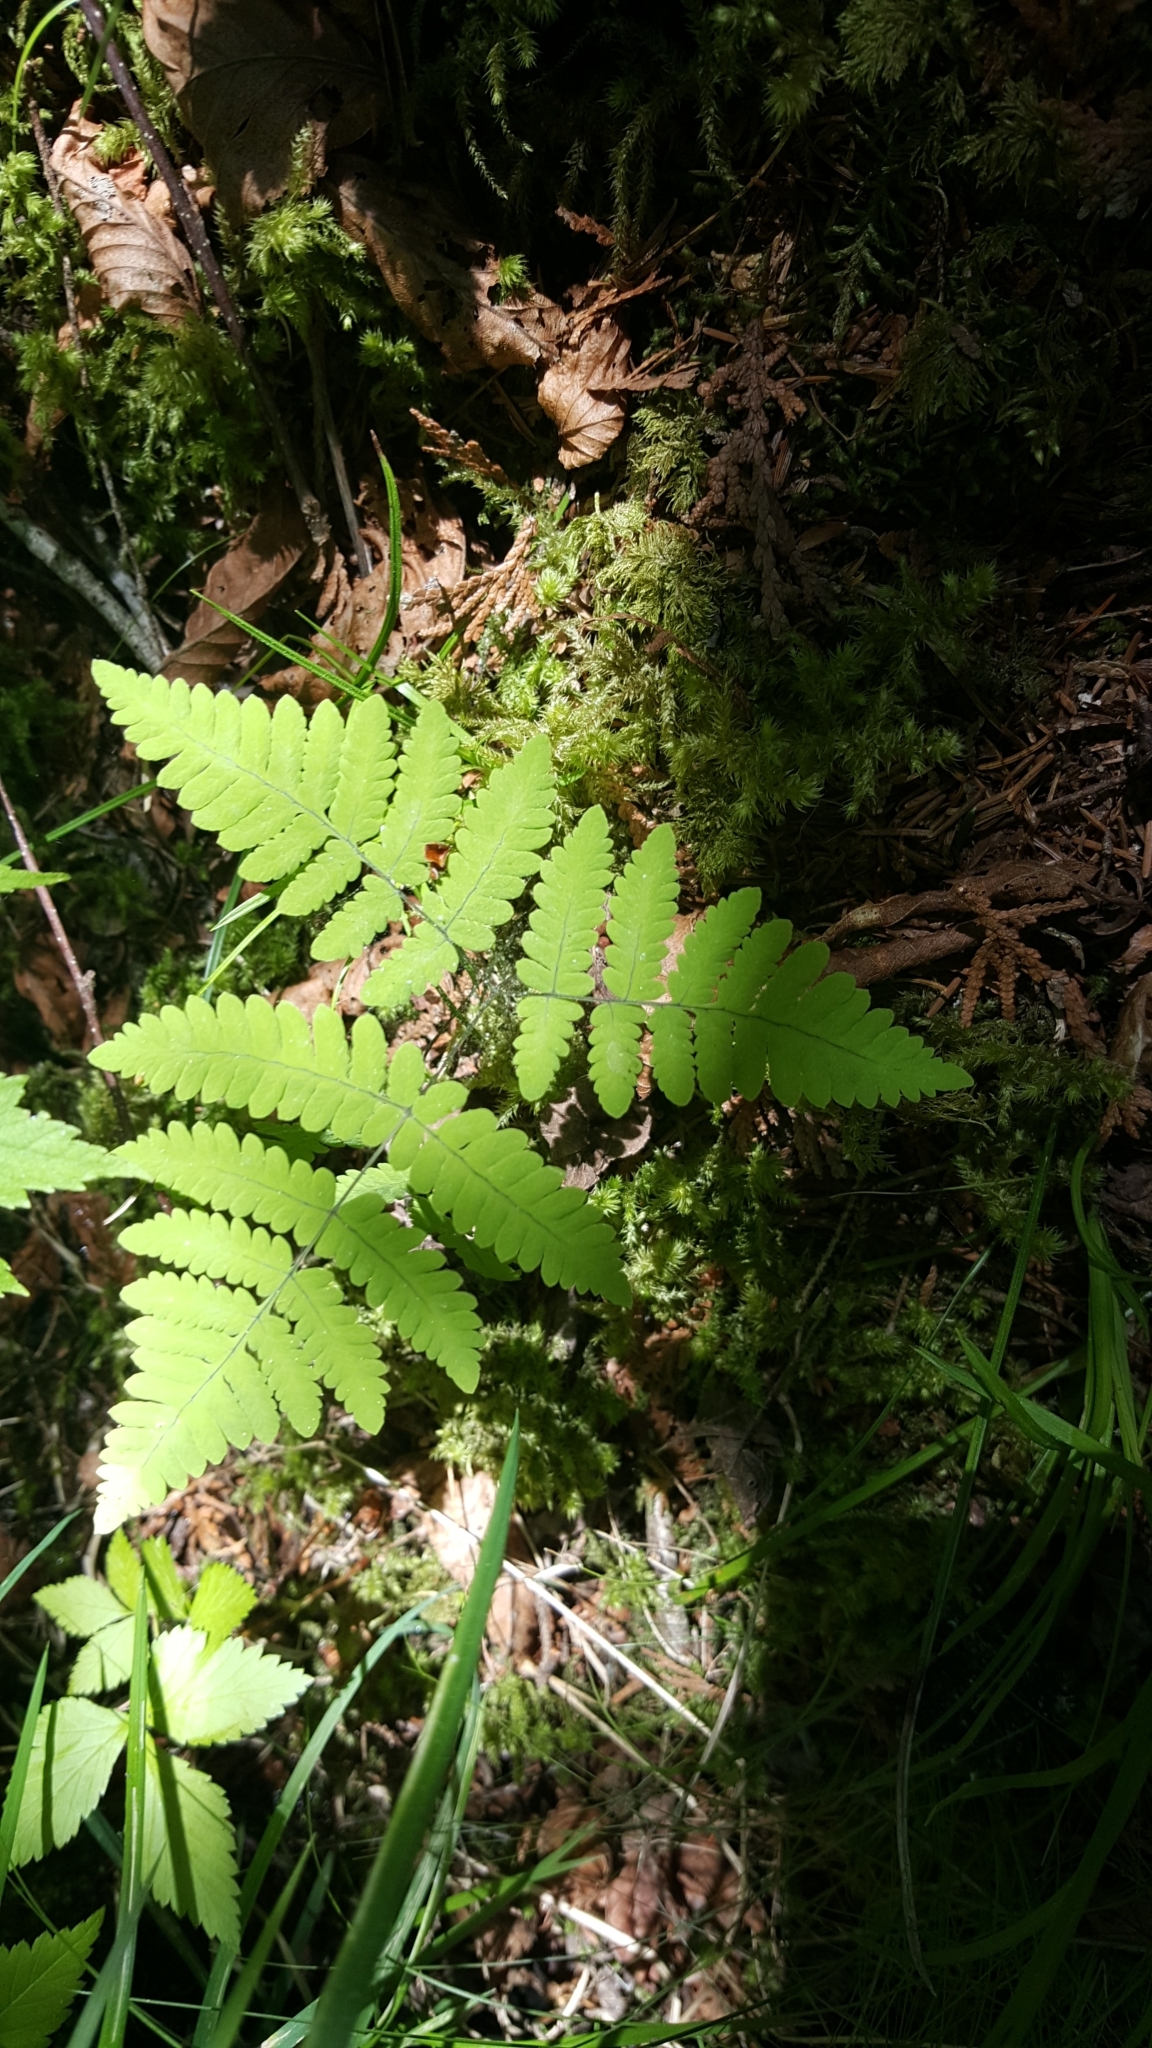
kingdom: Plantae
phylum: Tracheophyta
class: Polypodiopsida
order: Polypodiales
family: Cystopteridaceae
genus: Gymnocarpium
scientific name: Gymnocarpium dryopteris
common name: Oak fern
